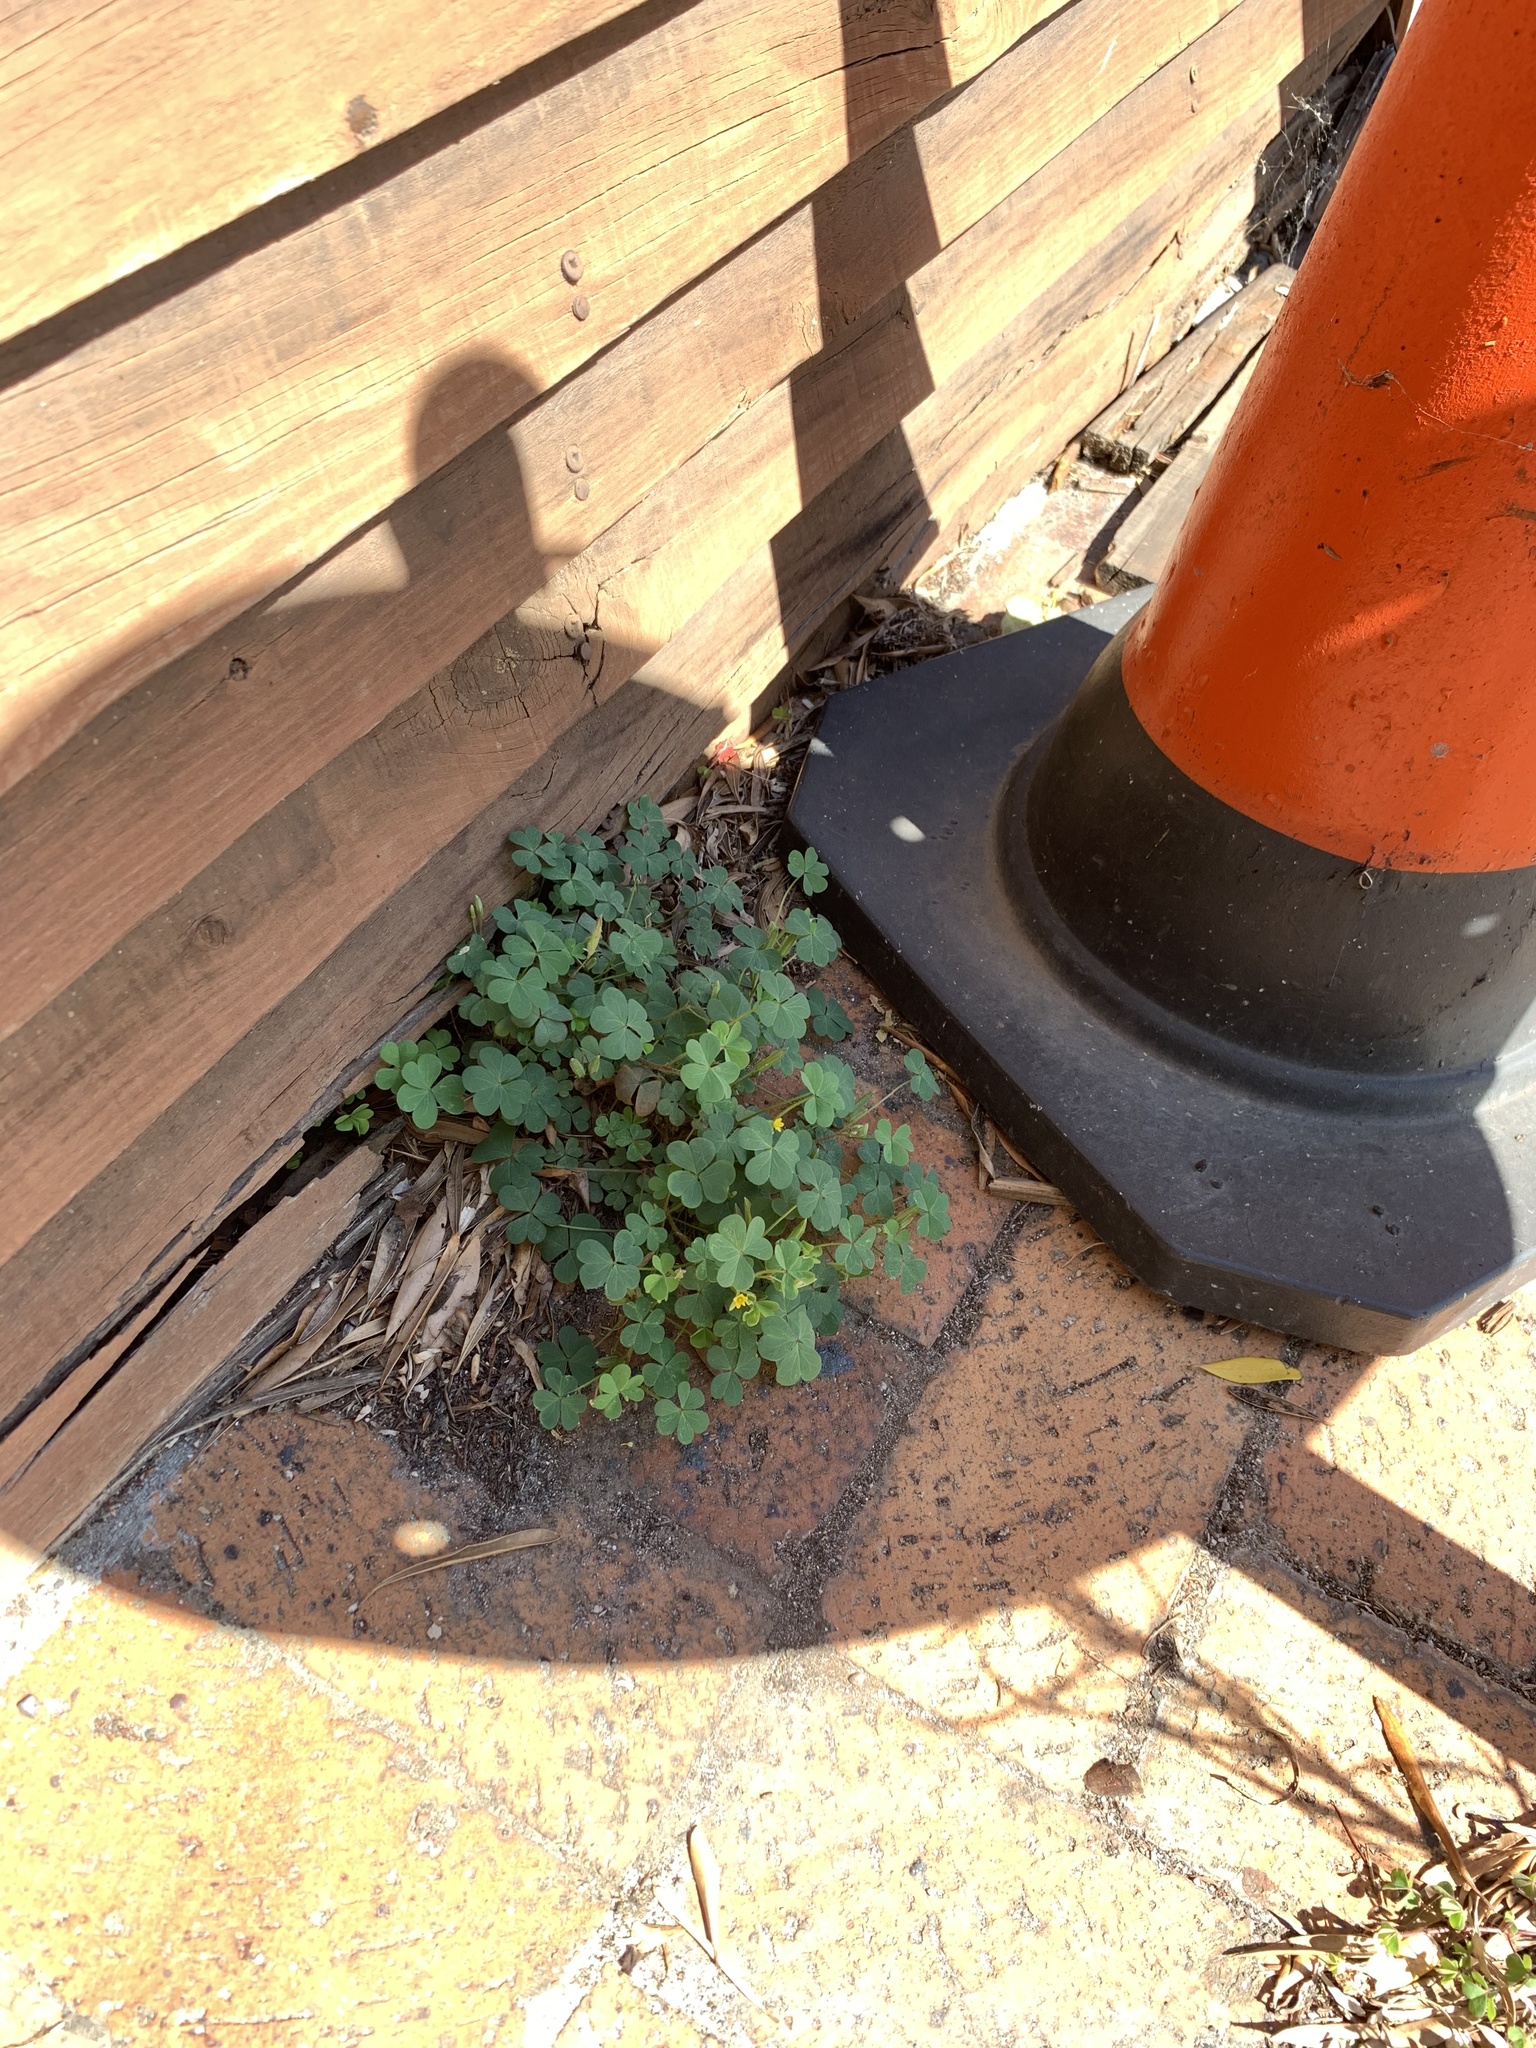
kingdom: Plantae
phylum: Tracheophyta
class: Magnoliopsida
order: Oxalidales
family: Oxalidaceae
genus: Oxalis
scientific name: Oxalis corniculata
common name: Procumbent yellow-sorrel
